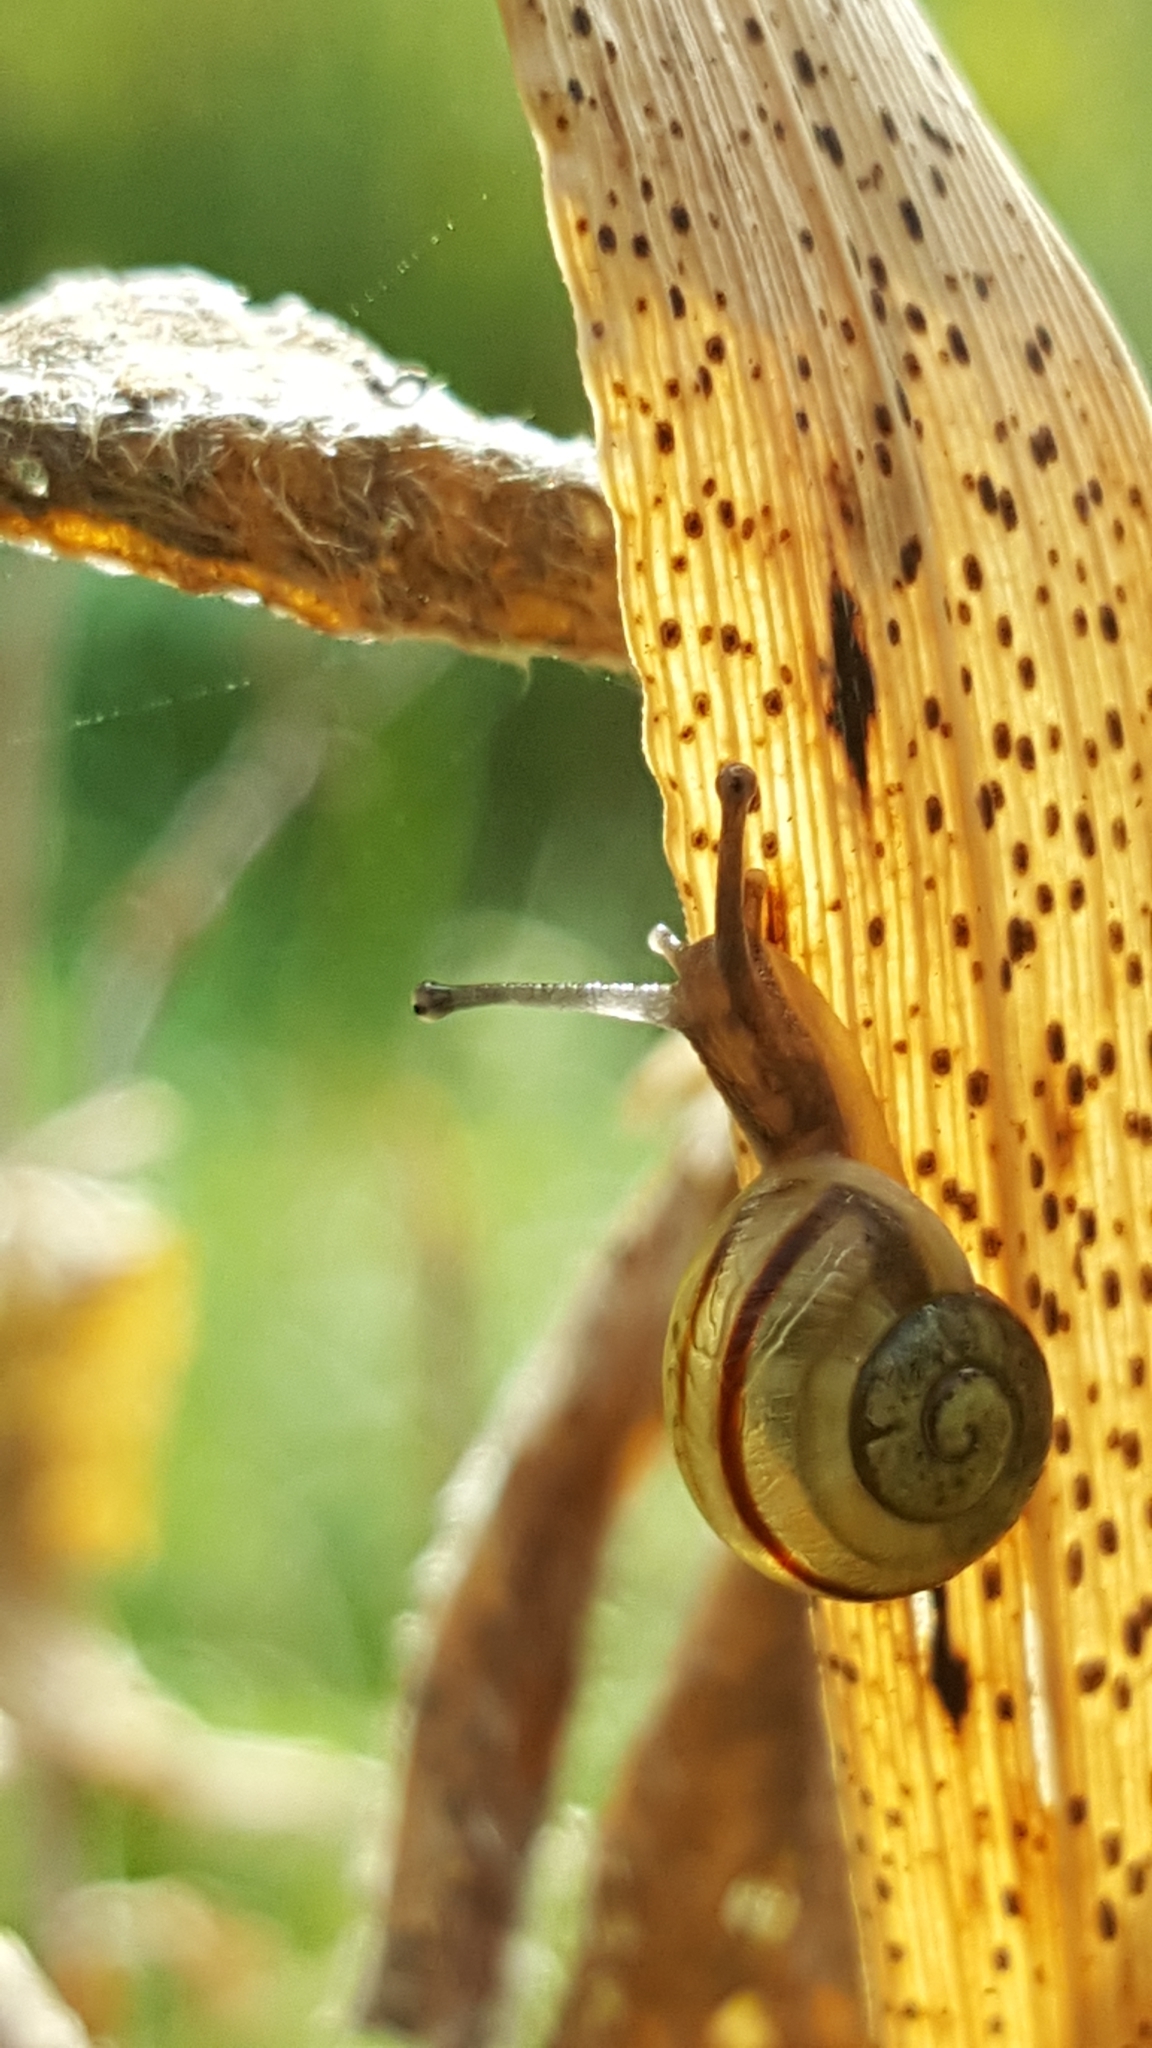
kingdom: Animalia
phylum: Mollusca
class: Gastropoda
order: Stylommatophora
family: Helicidae
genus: Cepaea
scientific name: Cepaea
